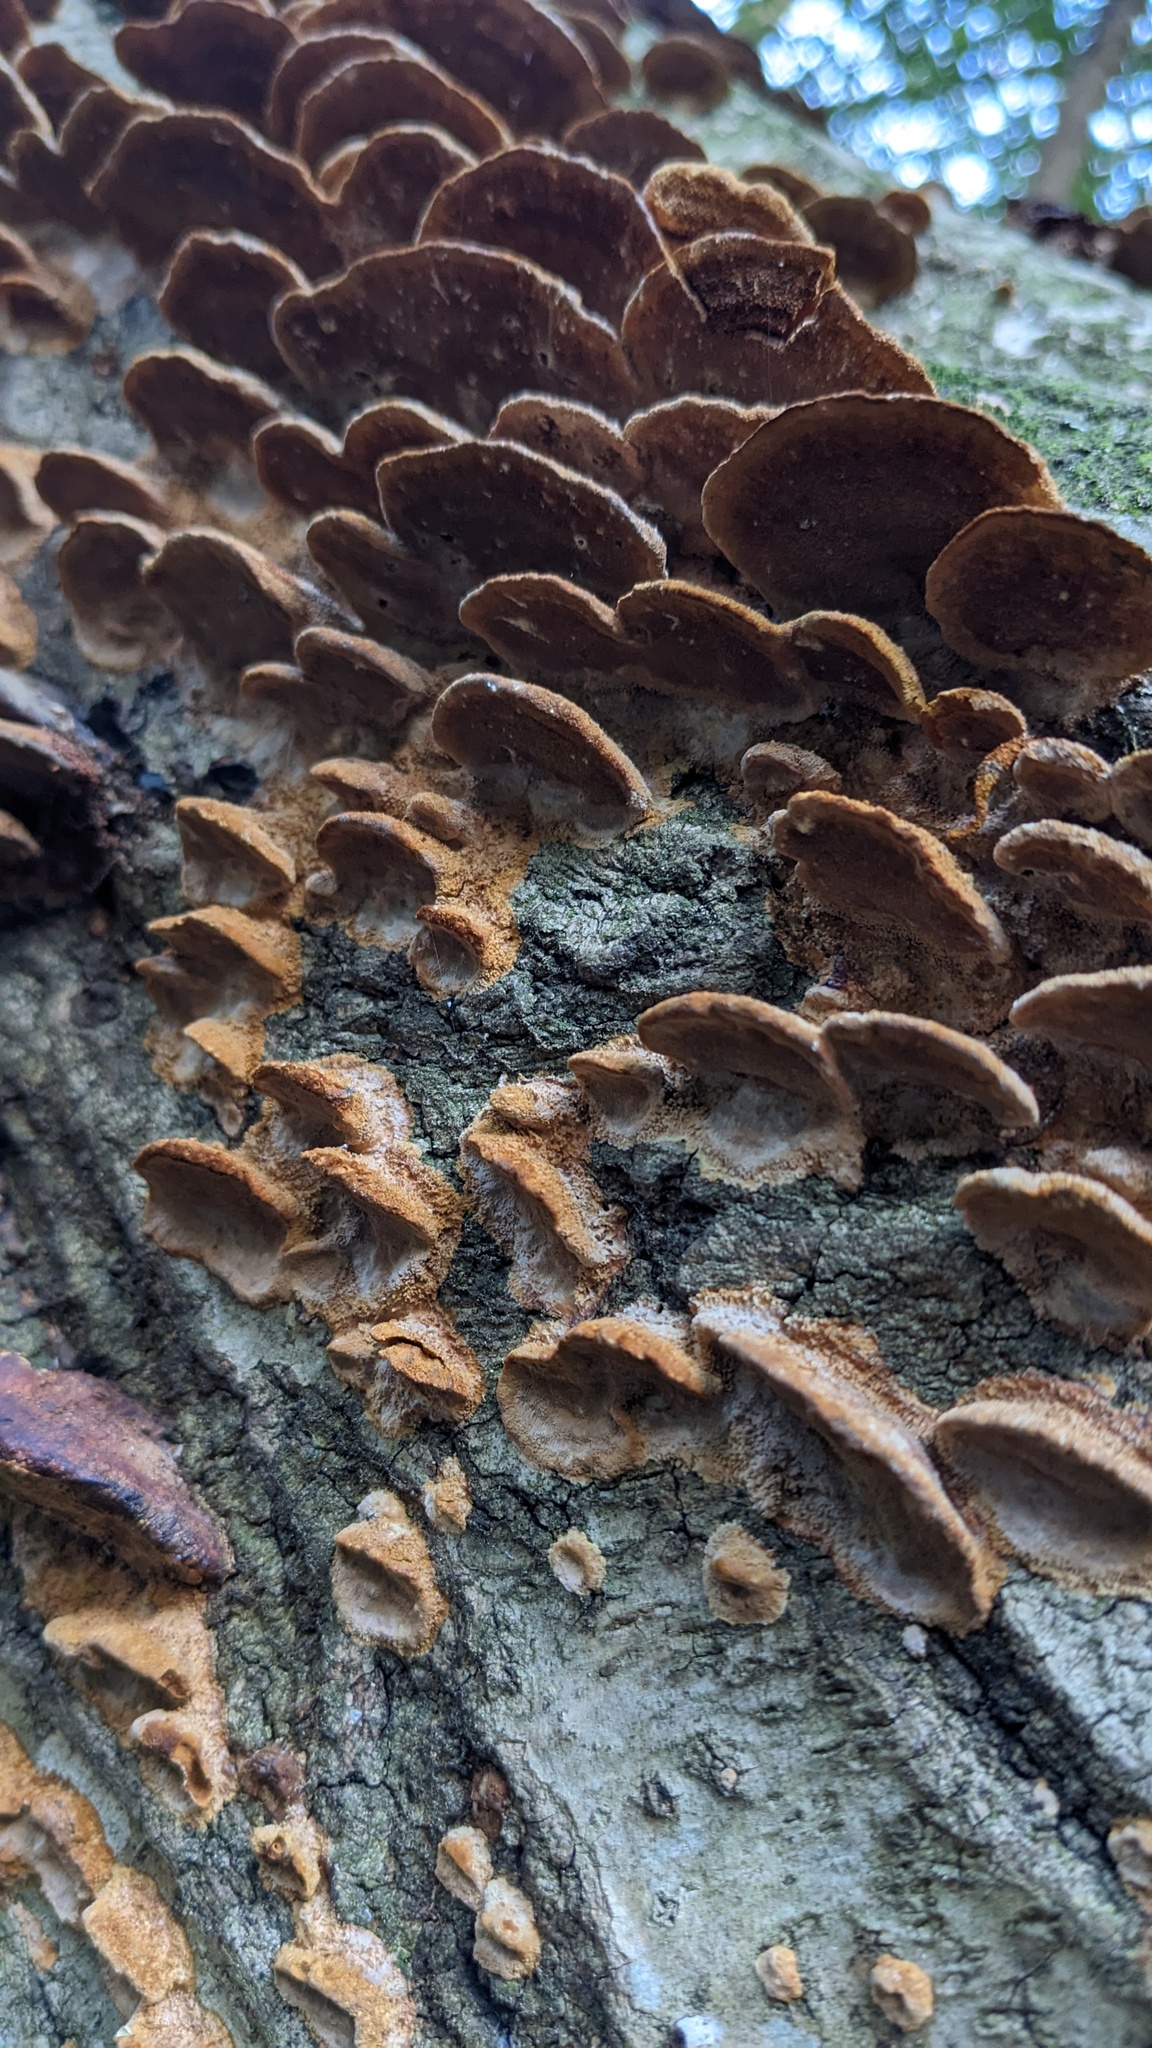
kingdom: Fungi
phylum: Basidiomycota
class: Agaricomycetes
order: Hymenochaetales
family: Hymenochaetaceae
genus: Phellinus
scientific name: Phellinus gilvus
